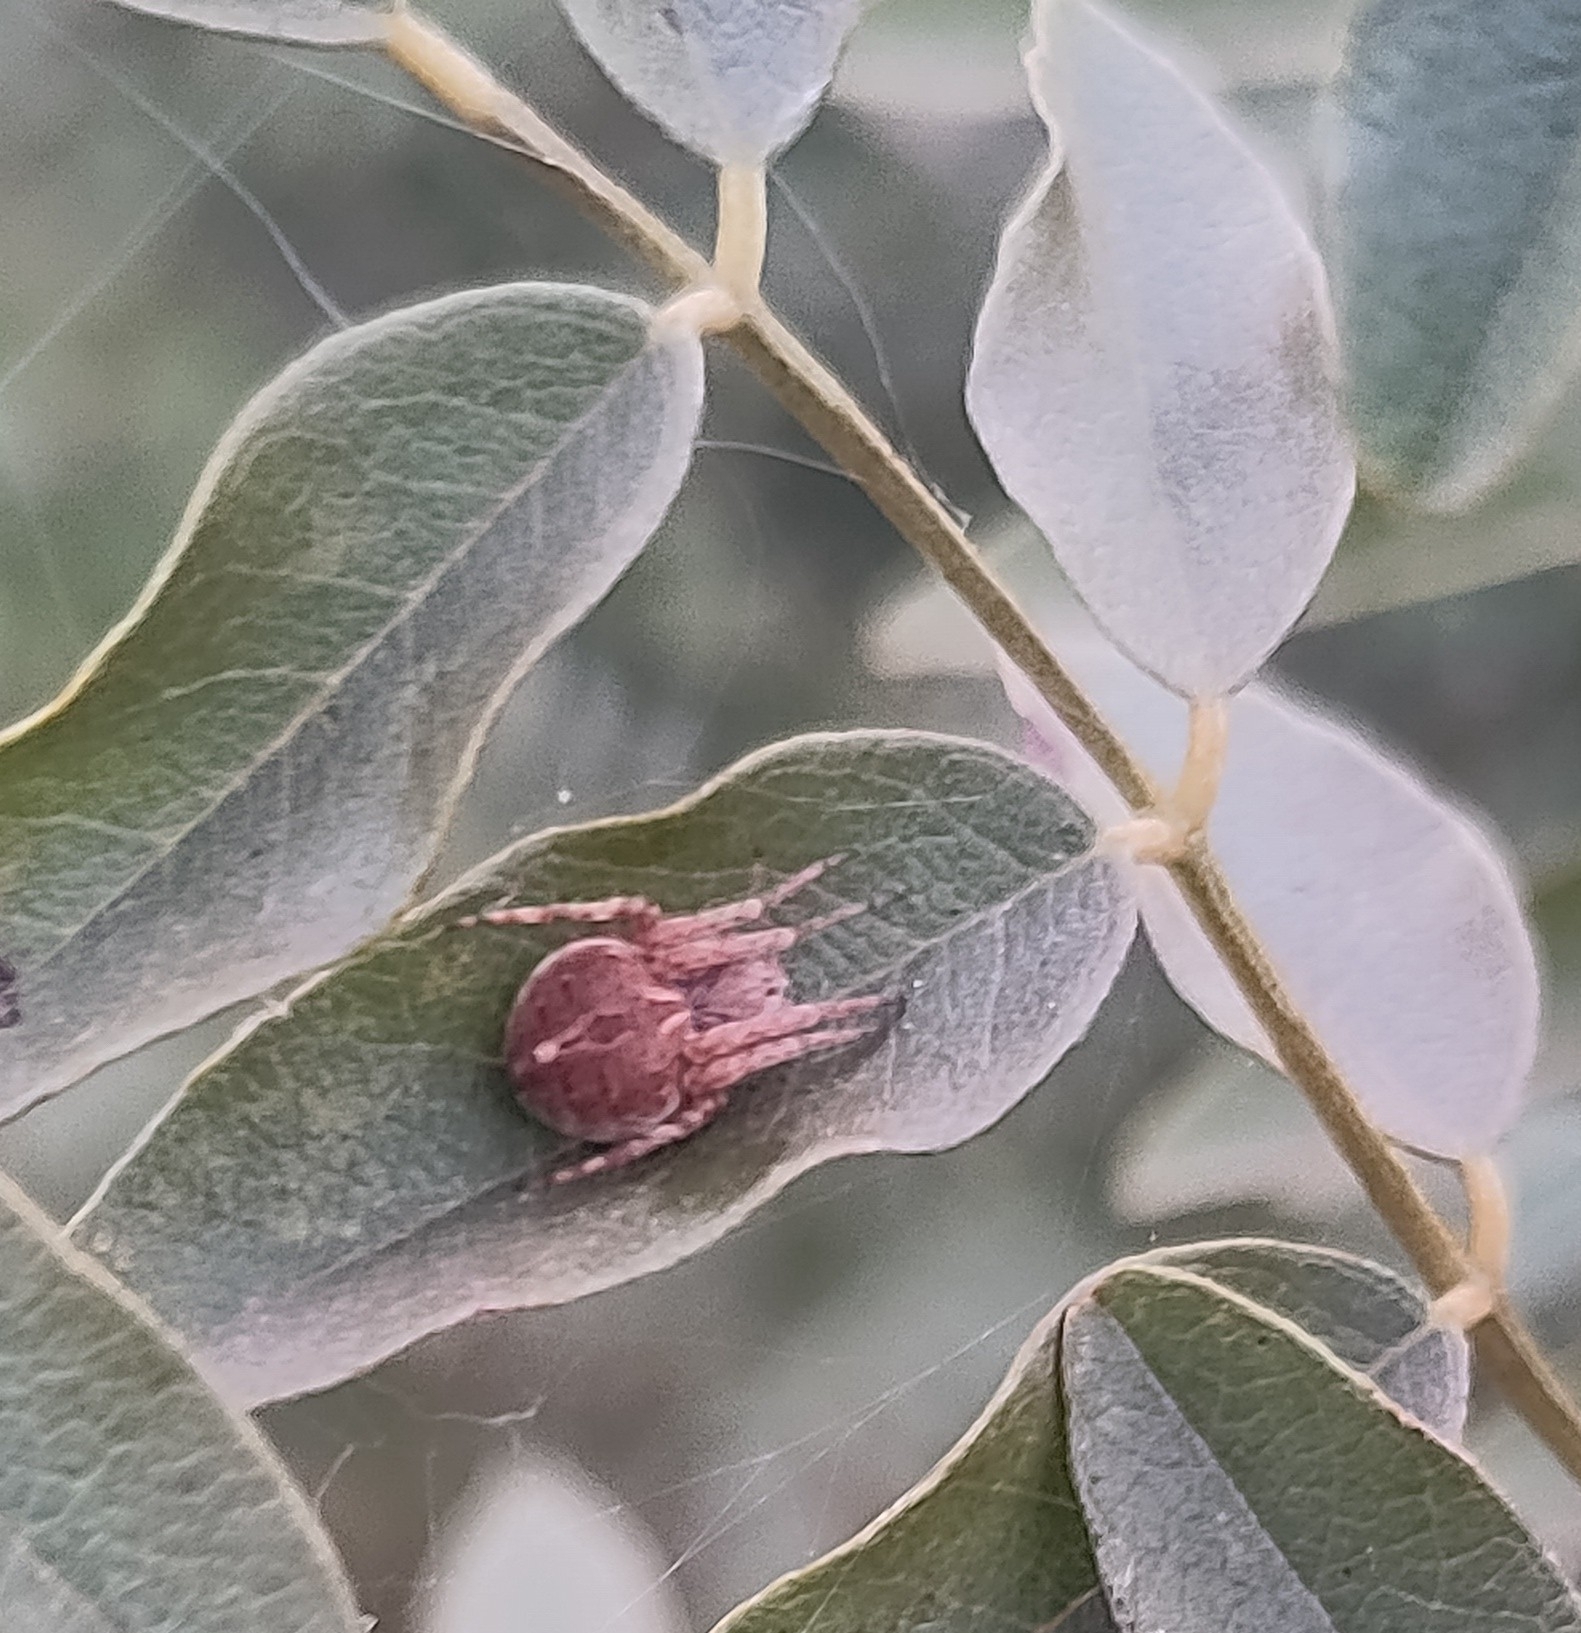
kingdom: Animalia
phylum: Arthropoda
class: Arachnida
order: Araneae
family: Araneidae
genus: Agalenatea
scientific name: Agalenatea redii
